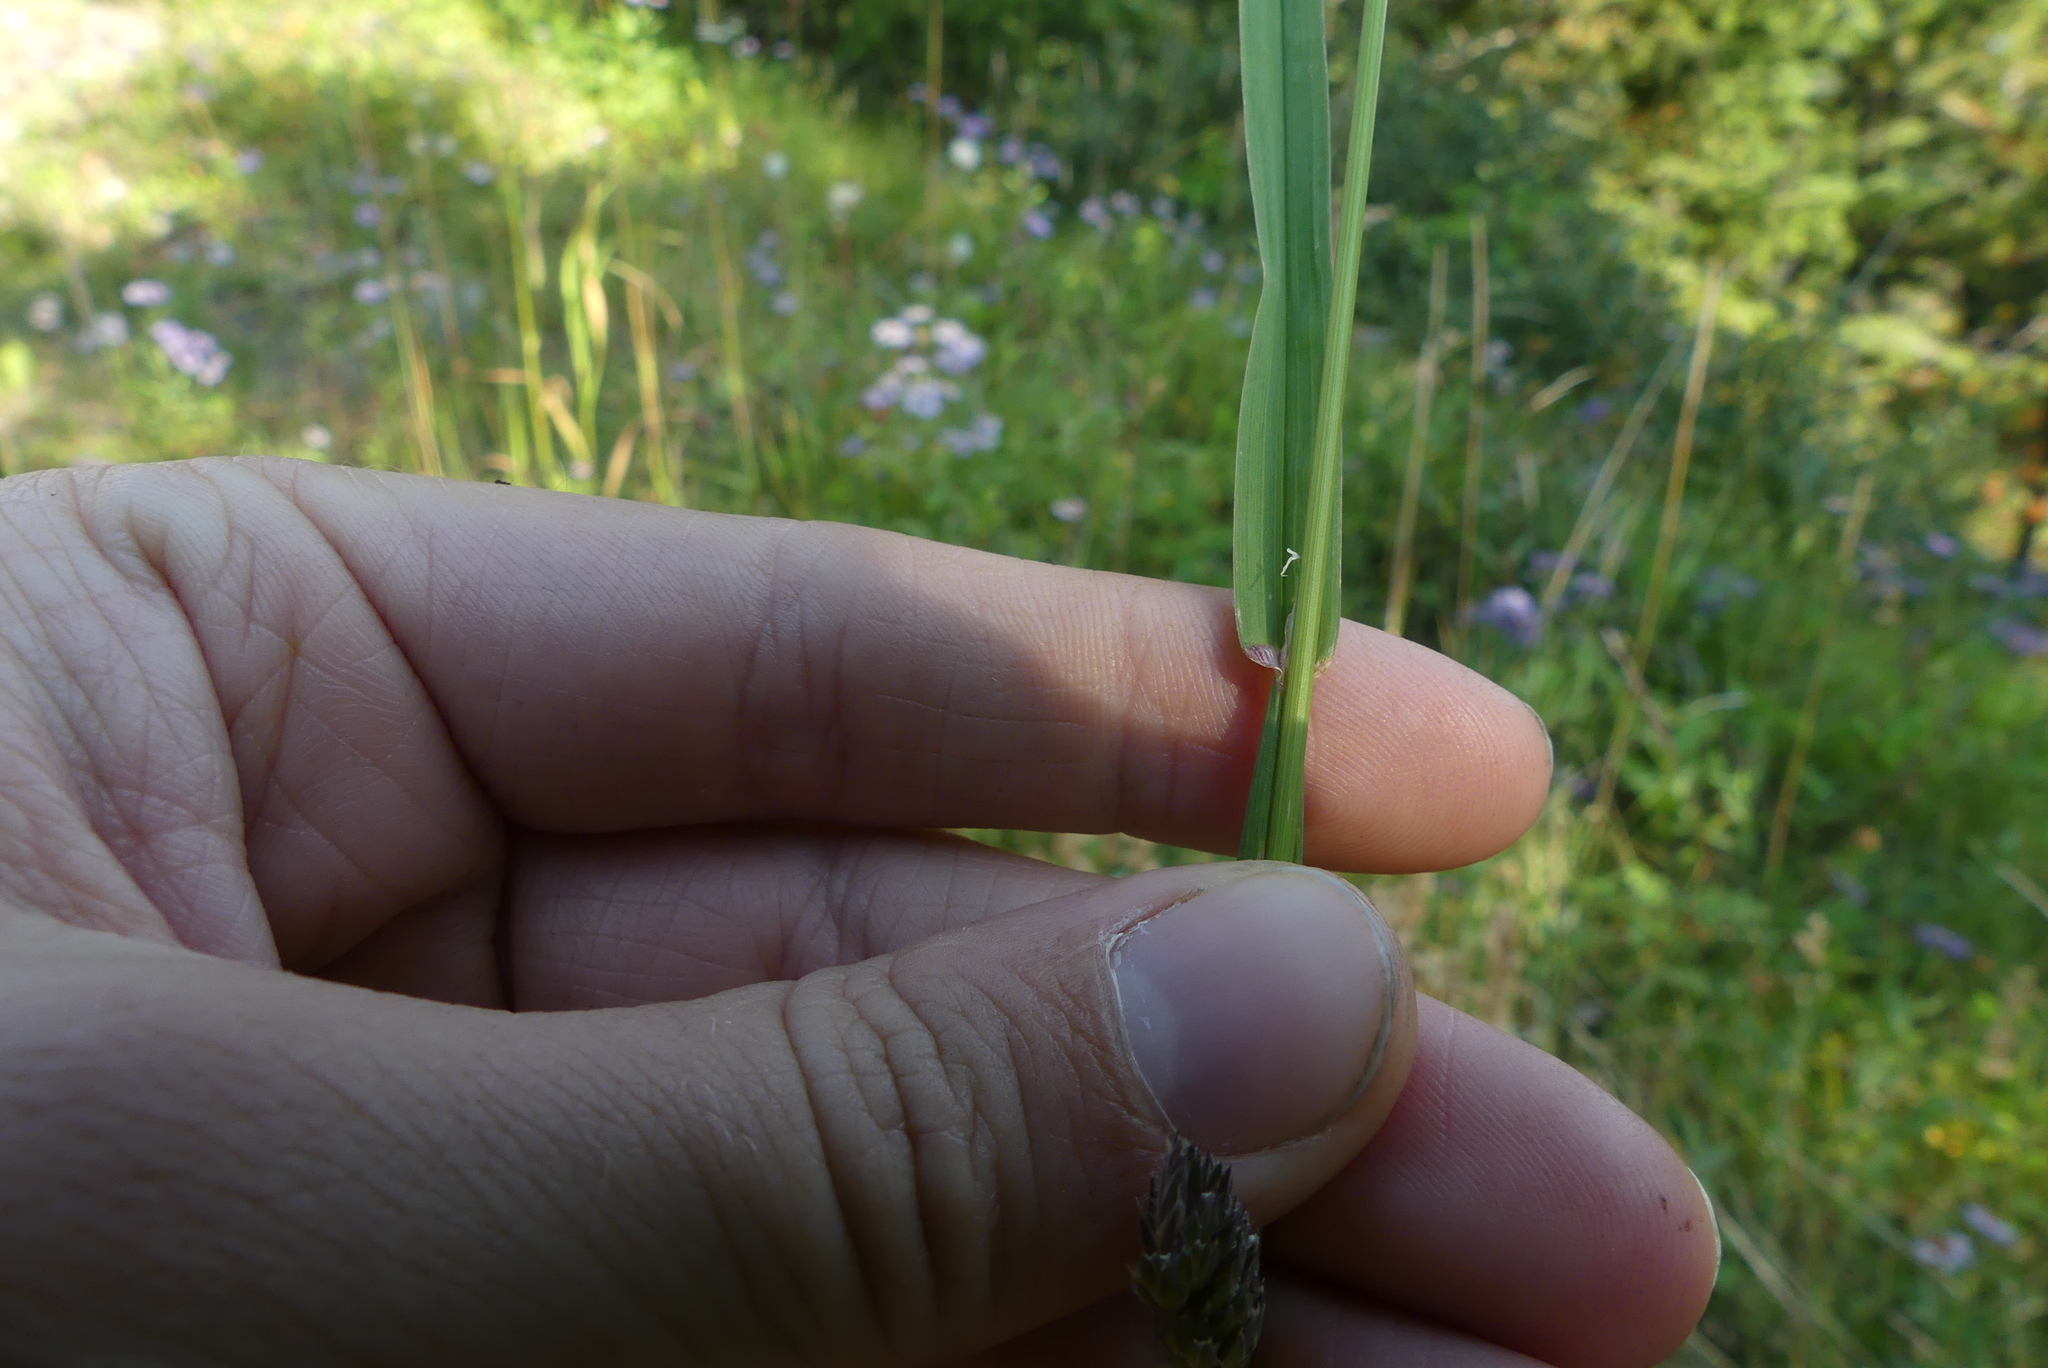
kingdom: Plantae
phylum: Tracheophyta
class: Liliopsida
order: Poales
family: Poaceae
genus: Dactylis
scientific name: Dactylis glomerata
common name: Orchardgrass
